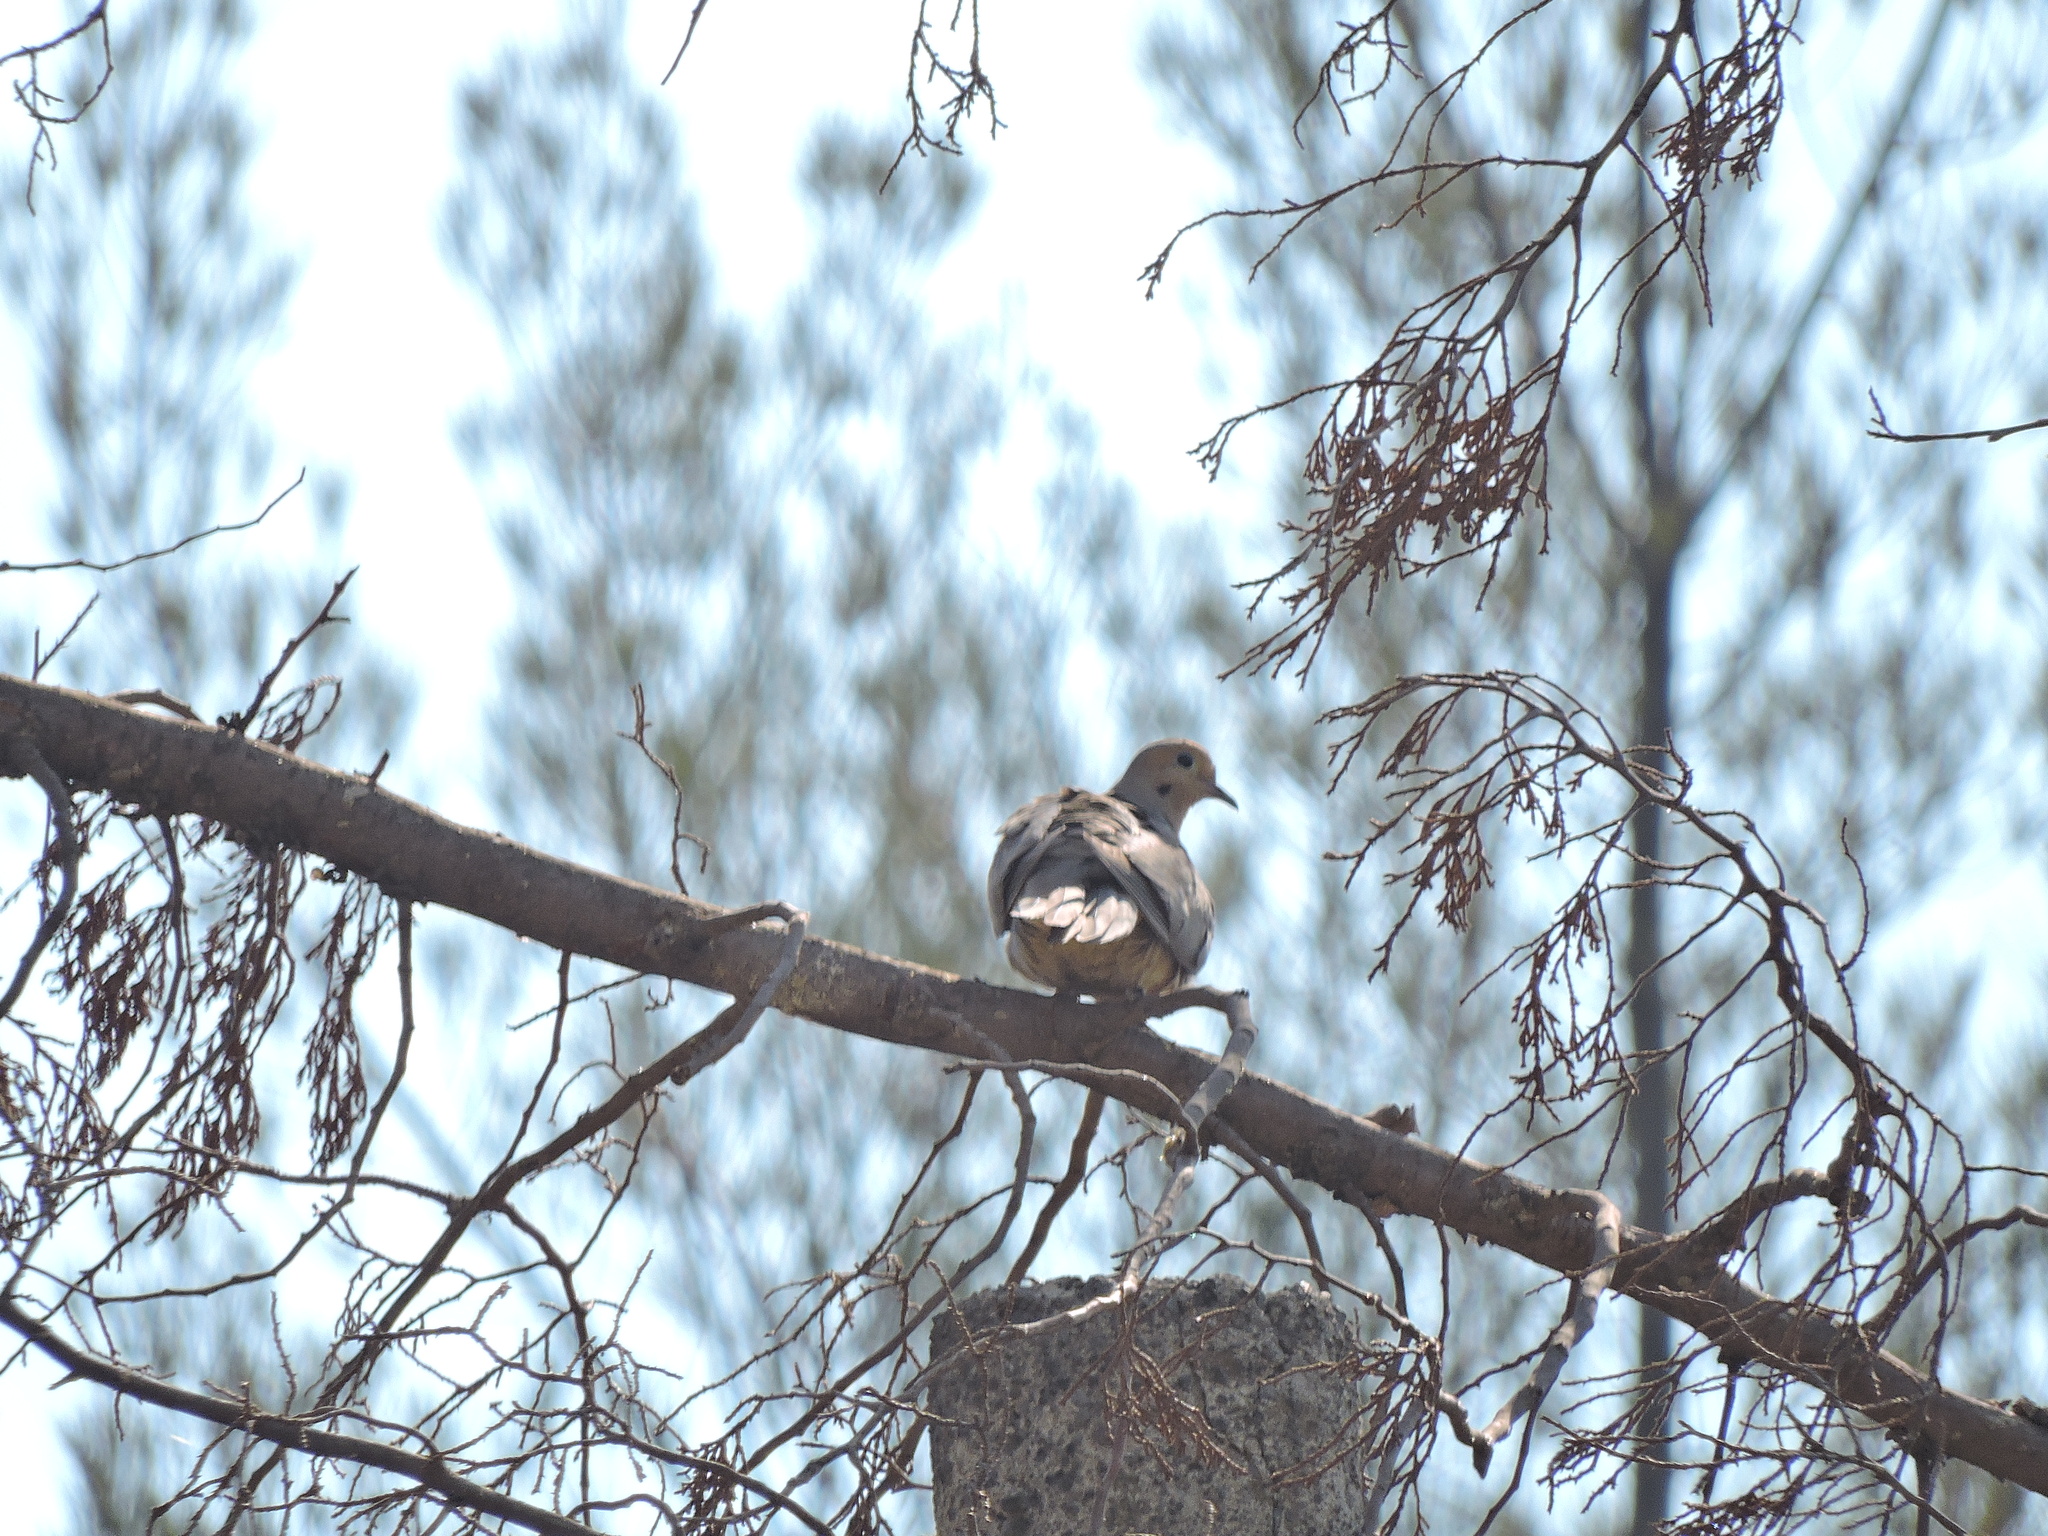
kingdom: Animalia
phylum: Chordata
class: Aves
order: Columbiformes
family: Columbidae
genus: Zenaida
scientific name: Zenaida macroura
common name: Mourning dove
